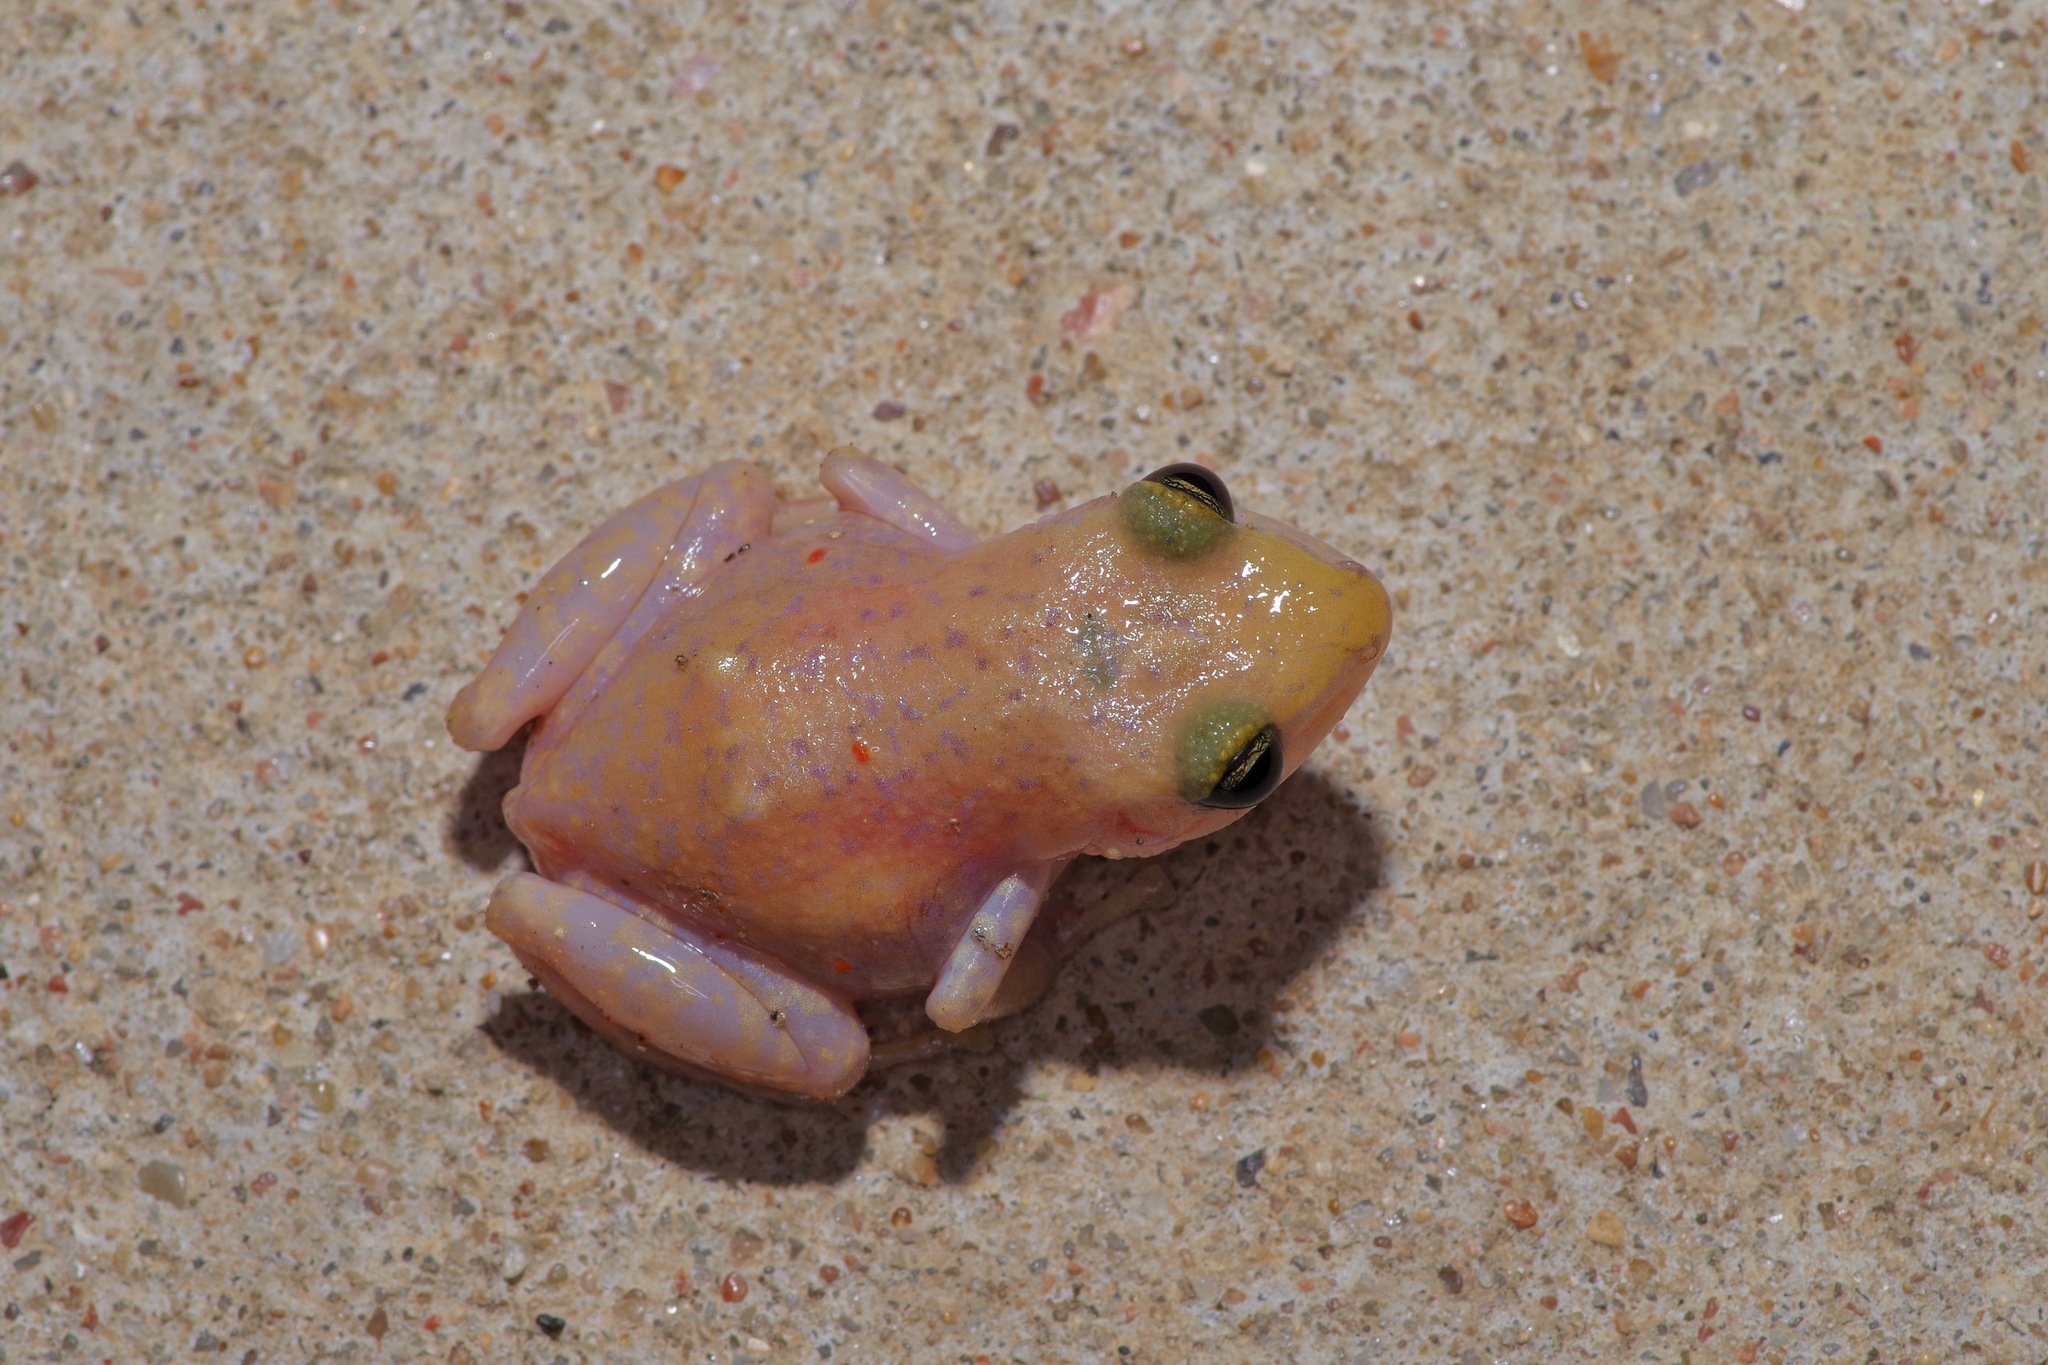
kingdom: Animalia
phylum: Chordata
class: Amphibia
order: Anura
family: Eleutherodactylidae
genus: Eleutherodactylus
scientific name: Eleutherodactylus marnockii
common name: Cliff chirping frog
